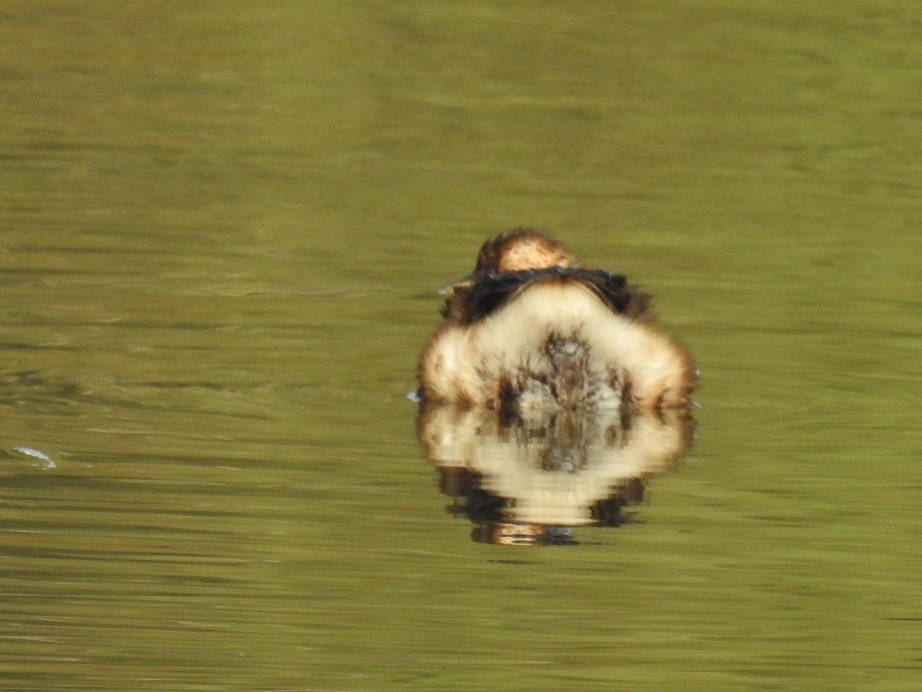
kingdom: Animalia
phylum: Chordata
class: Aves
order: Podicipediformes
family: Podicipedidae
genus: Tachybaptus
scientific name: Tachybaptus ruficollis
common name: Little grebe
